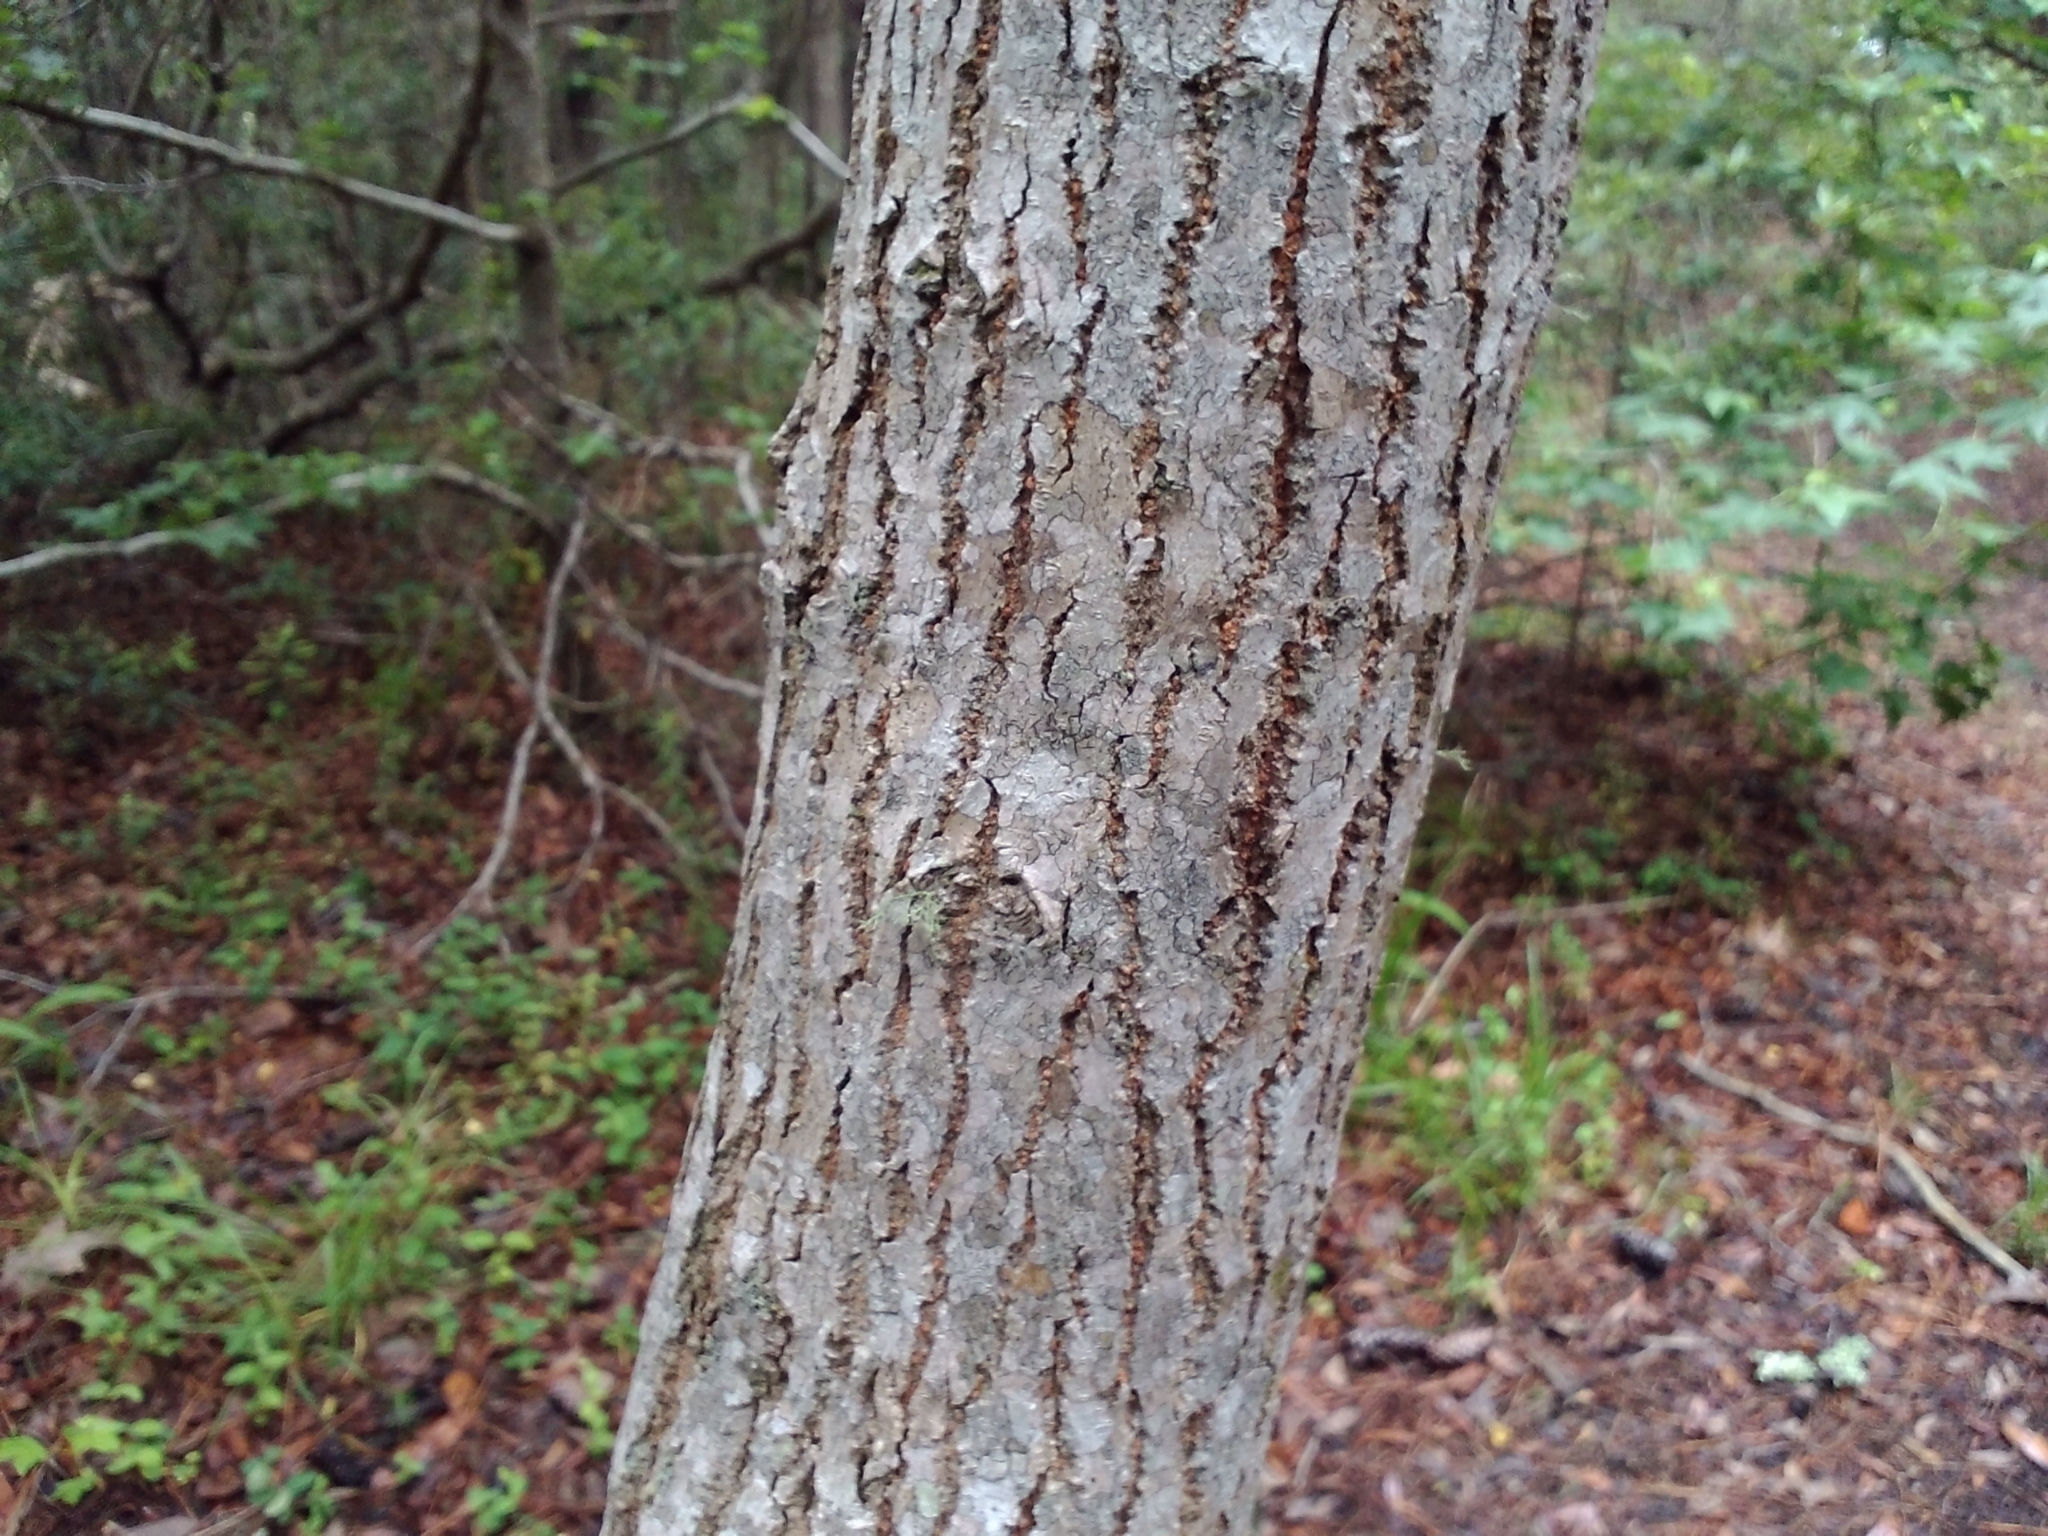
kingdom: Plantae
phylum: Tracheophyta
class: Magnoliopsida
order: Malpighiales
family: Euphorbiaceae
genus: Triadica
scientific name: Triadica sebifera
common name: Chinese tallow
